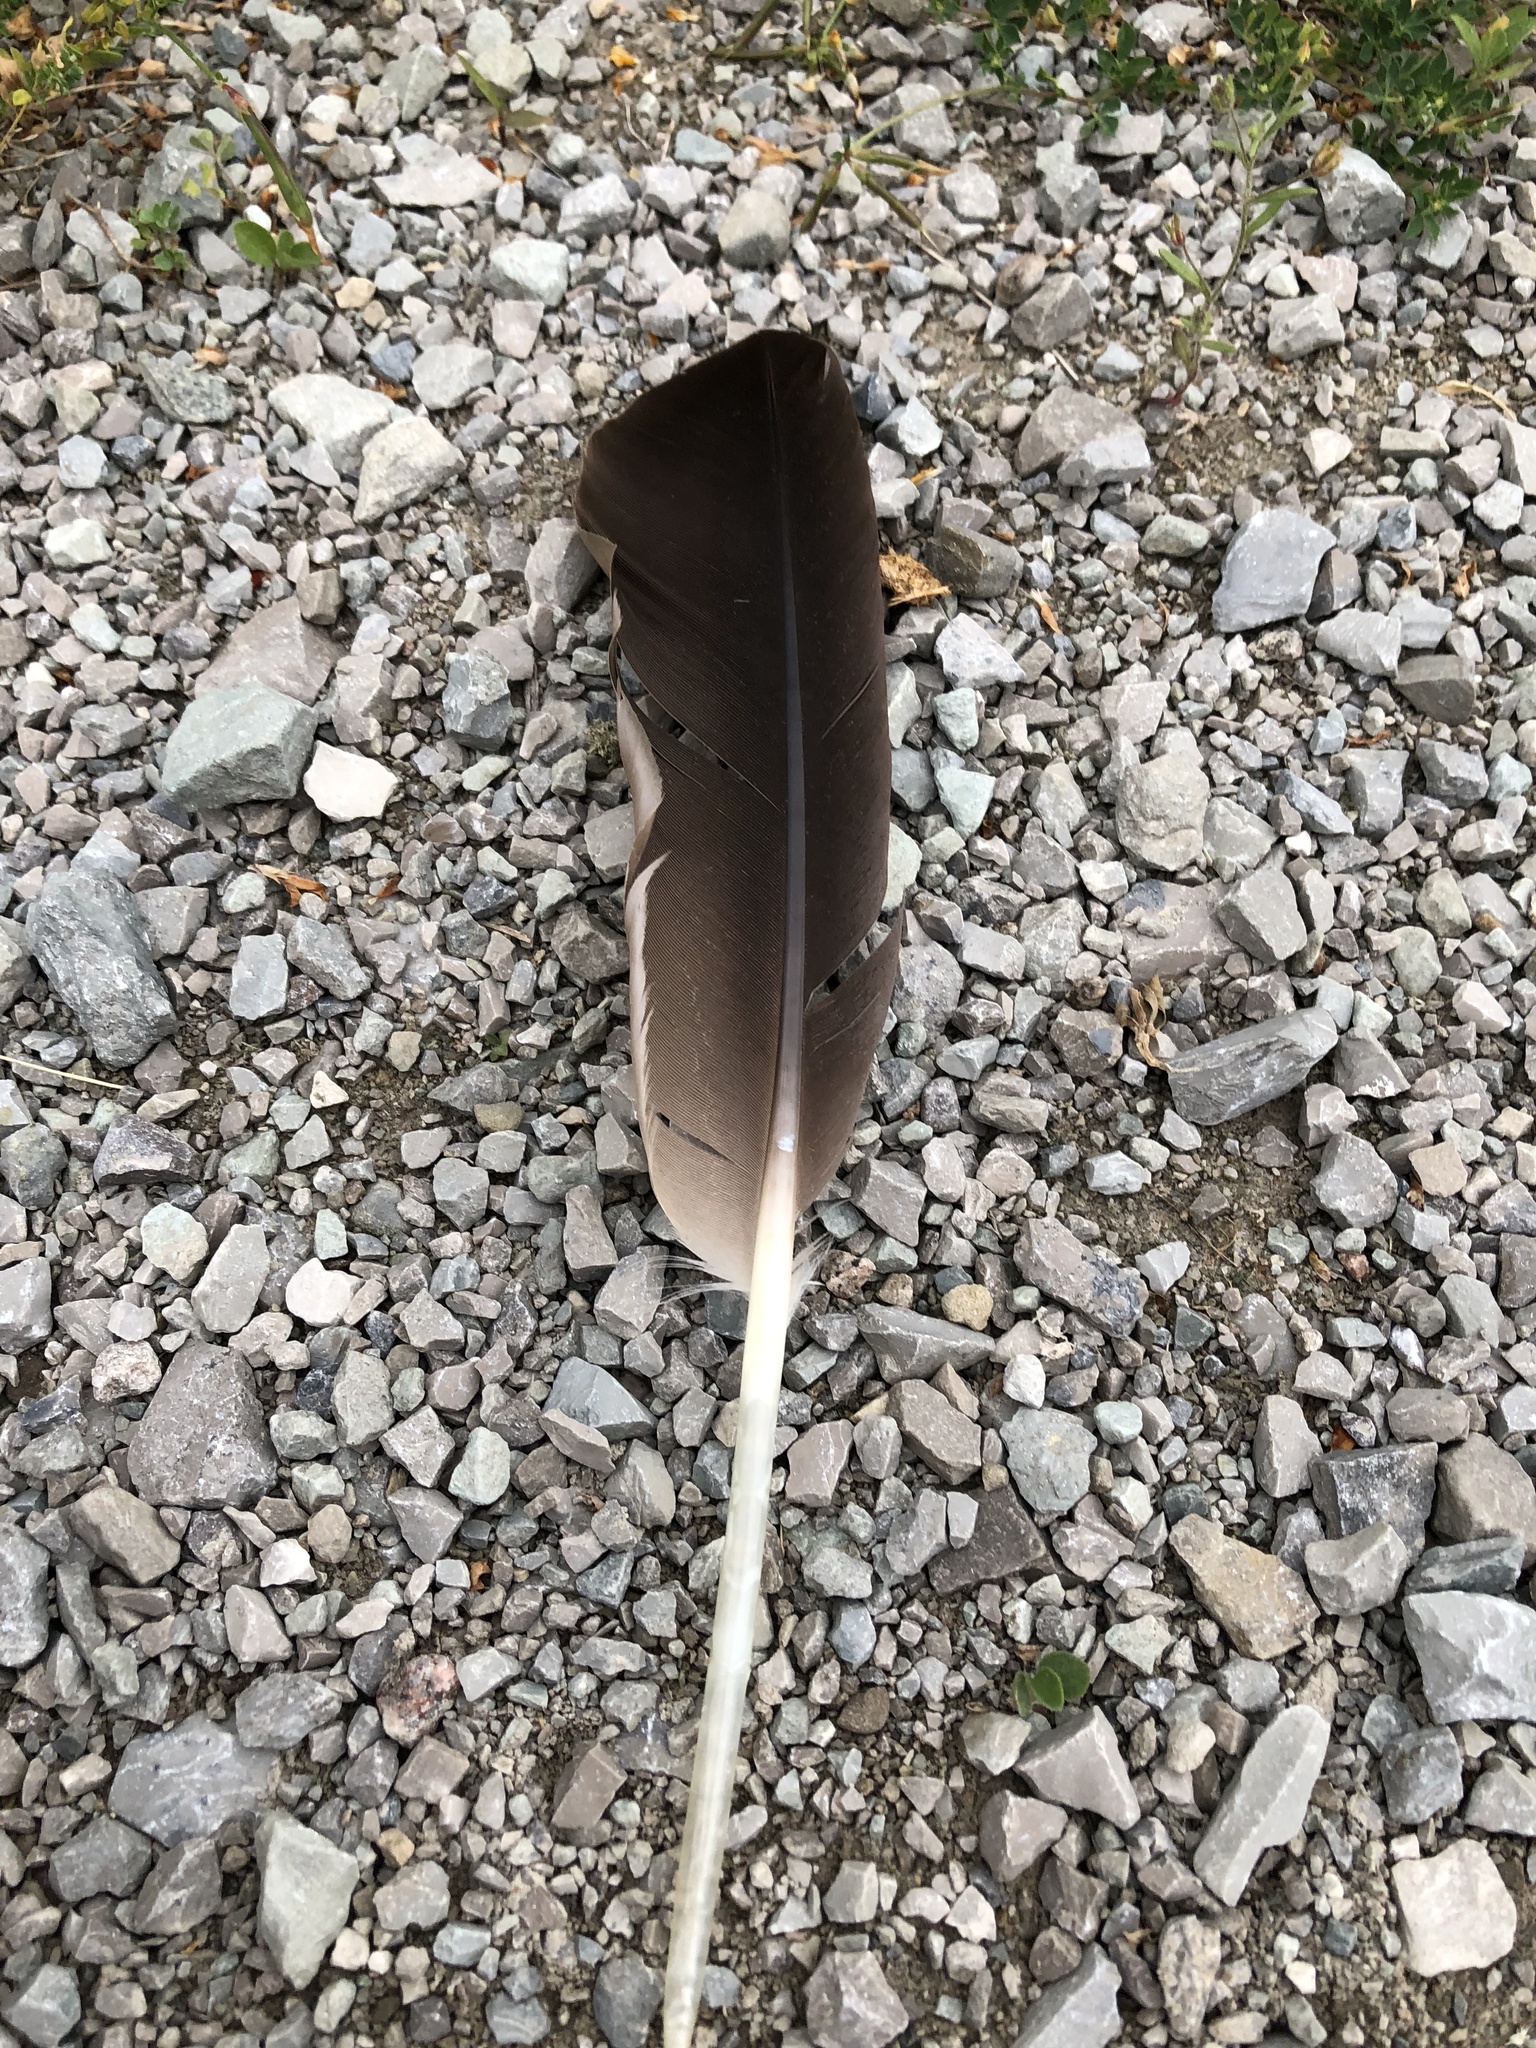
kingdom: Animalia
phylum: Chordata
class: Aves
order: Anseriformes
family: Anatidae
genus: Branta
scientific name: Branta canadensis
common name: Canada goose
